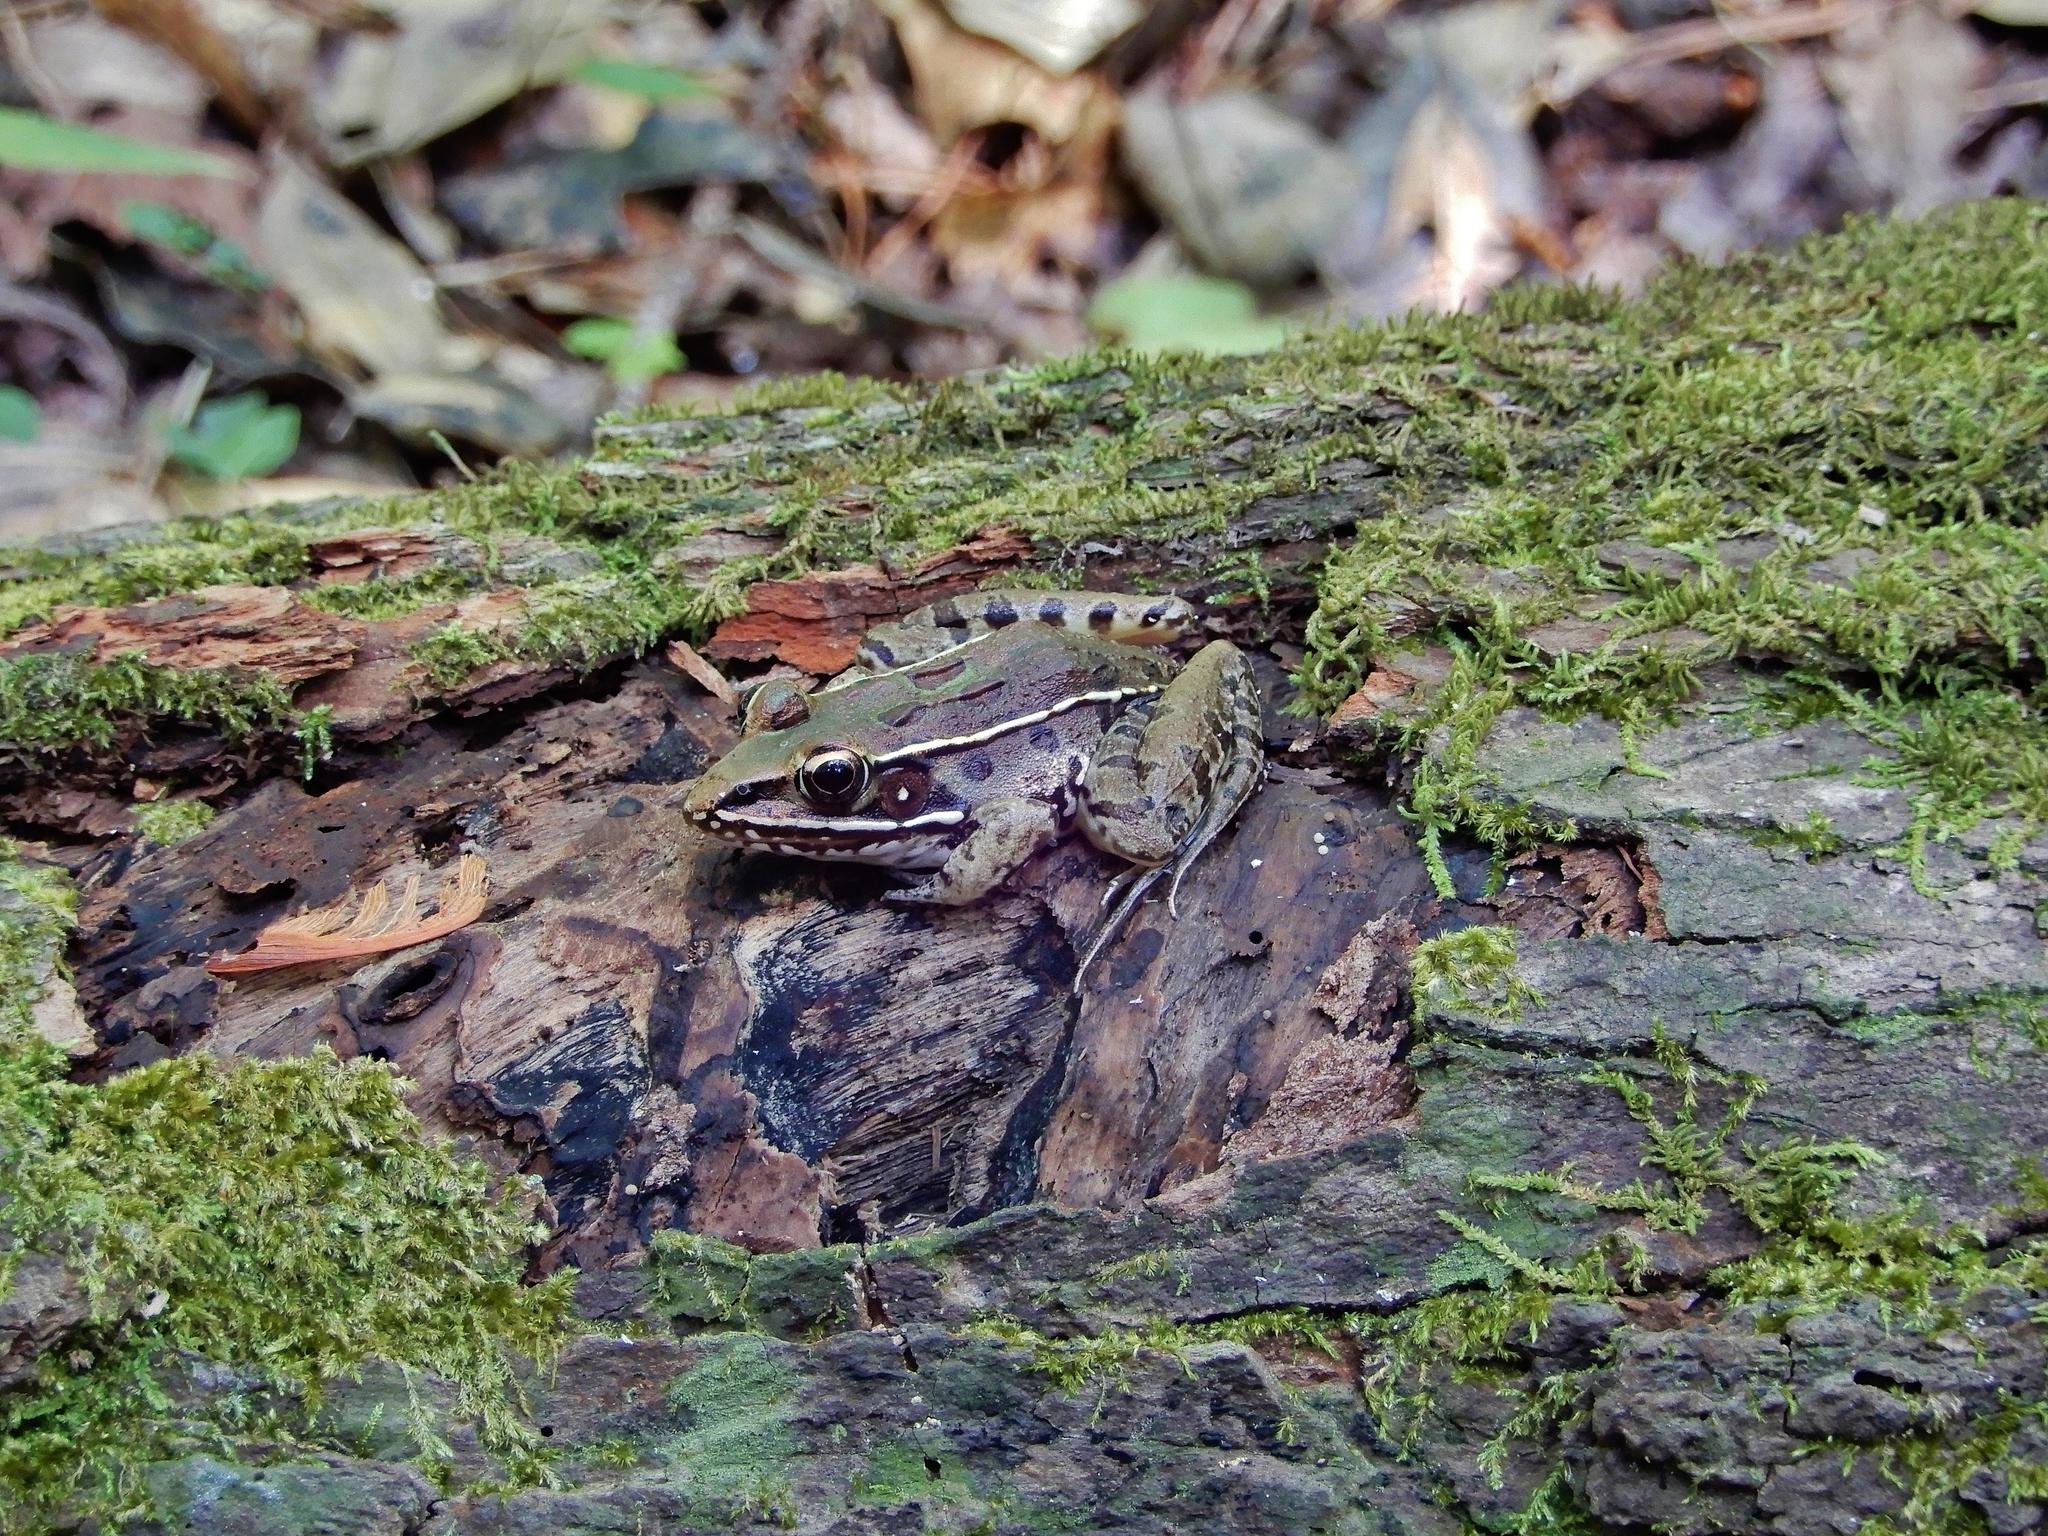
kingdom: Animalia
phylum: Chordata
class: Amphibia
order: Anura
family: Ranidae
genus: Lithobates
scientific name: Lithobates sphenocephalus
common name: Southern leopard frog
